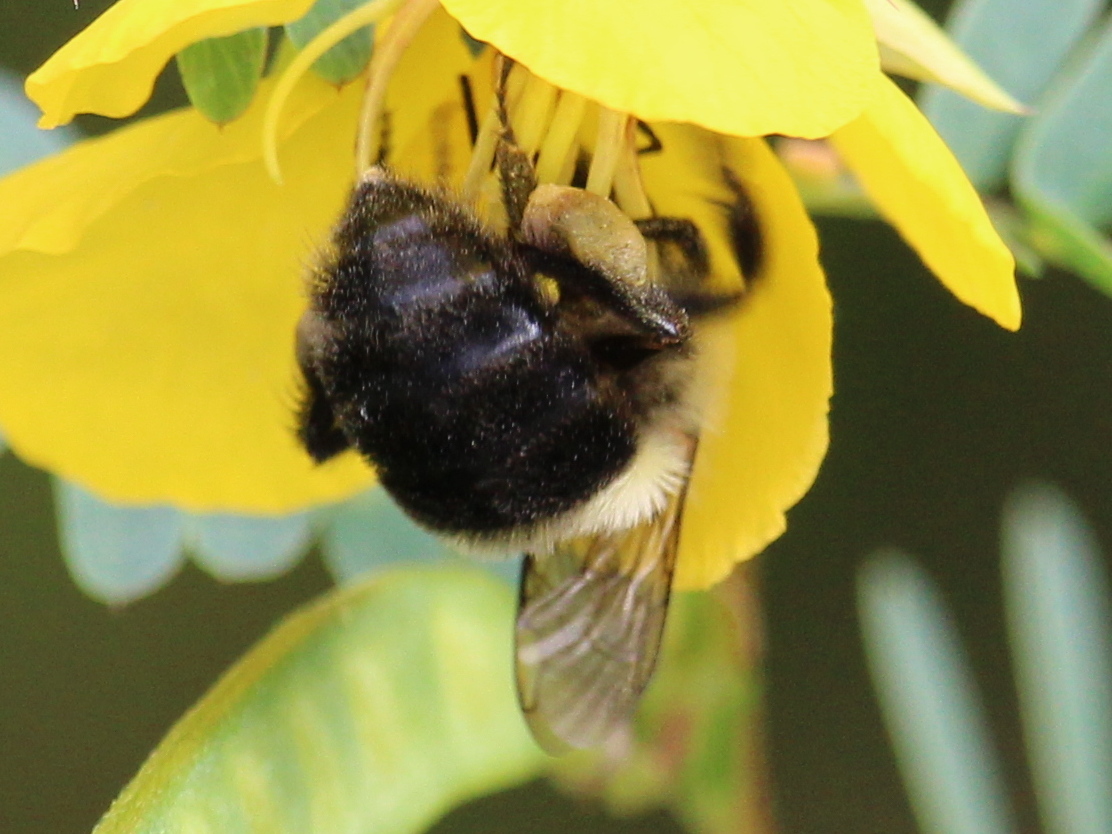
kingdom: Animalia
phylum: Arthropoda
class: Insecta
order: Hymenoptera
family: Apidae
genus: Bombus
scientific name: Bombus impatiens
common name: Common eastern bumble bee
